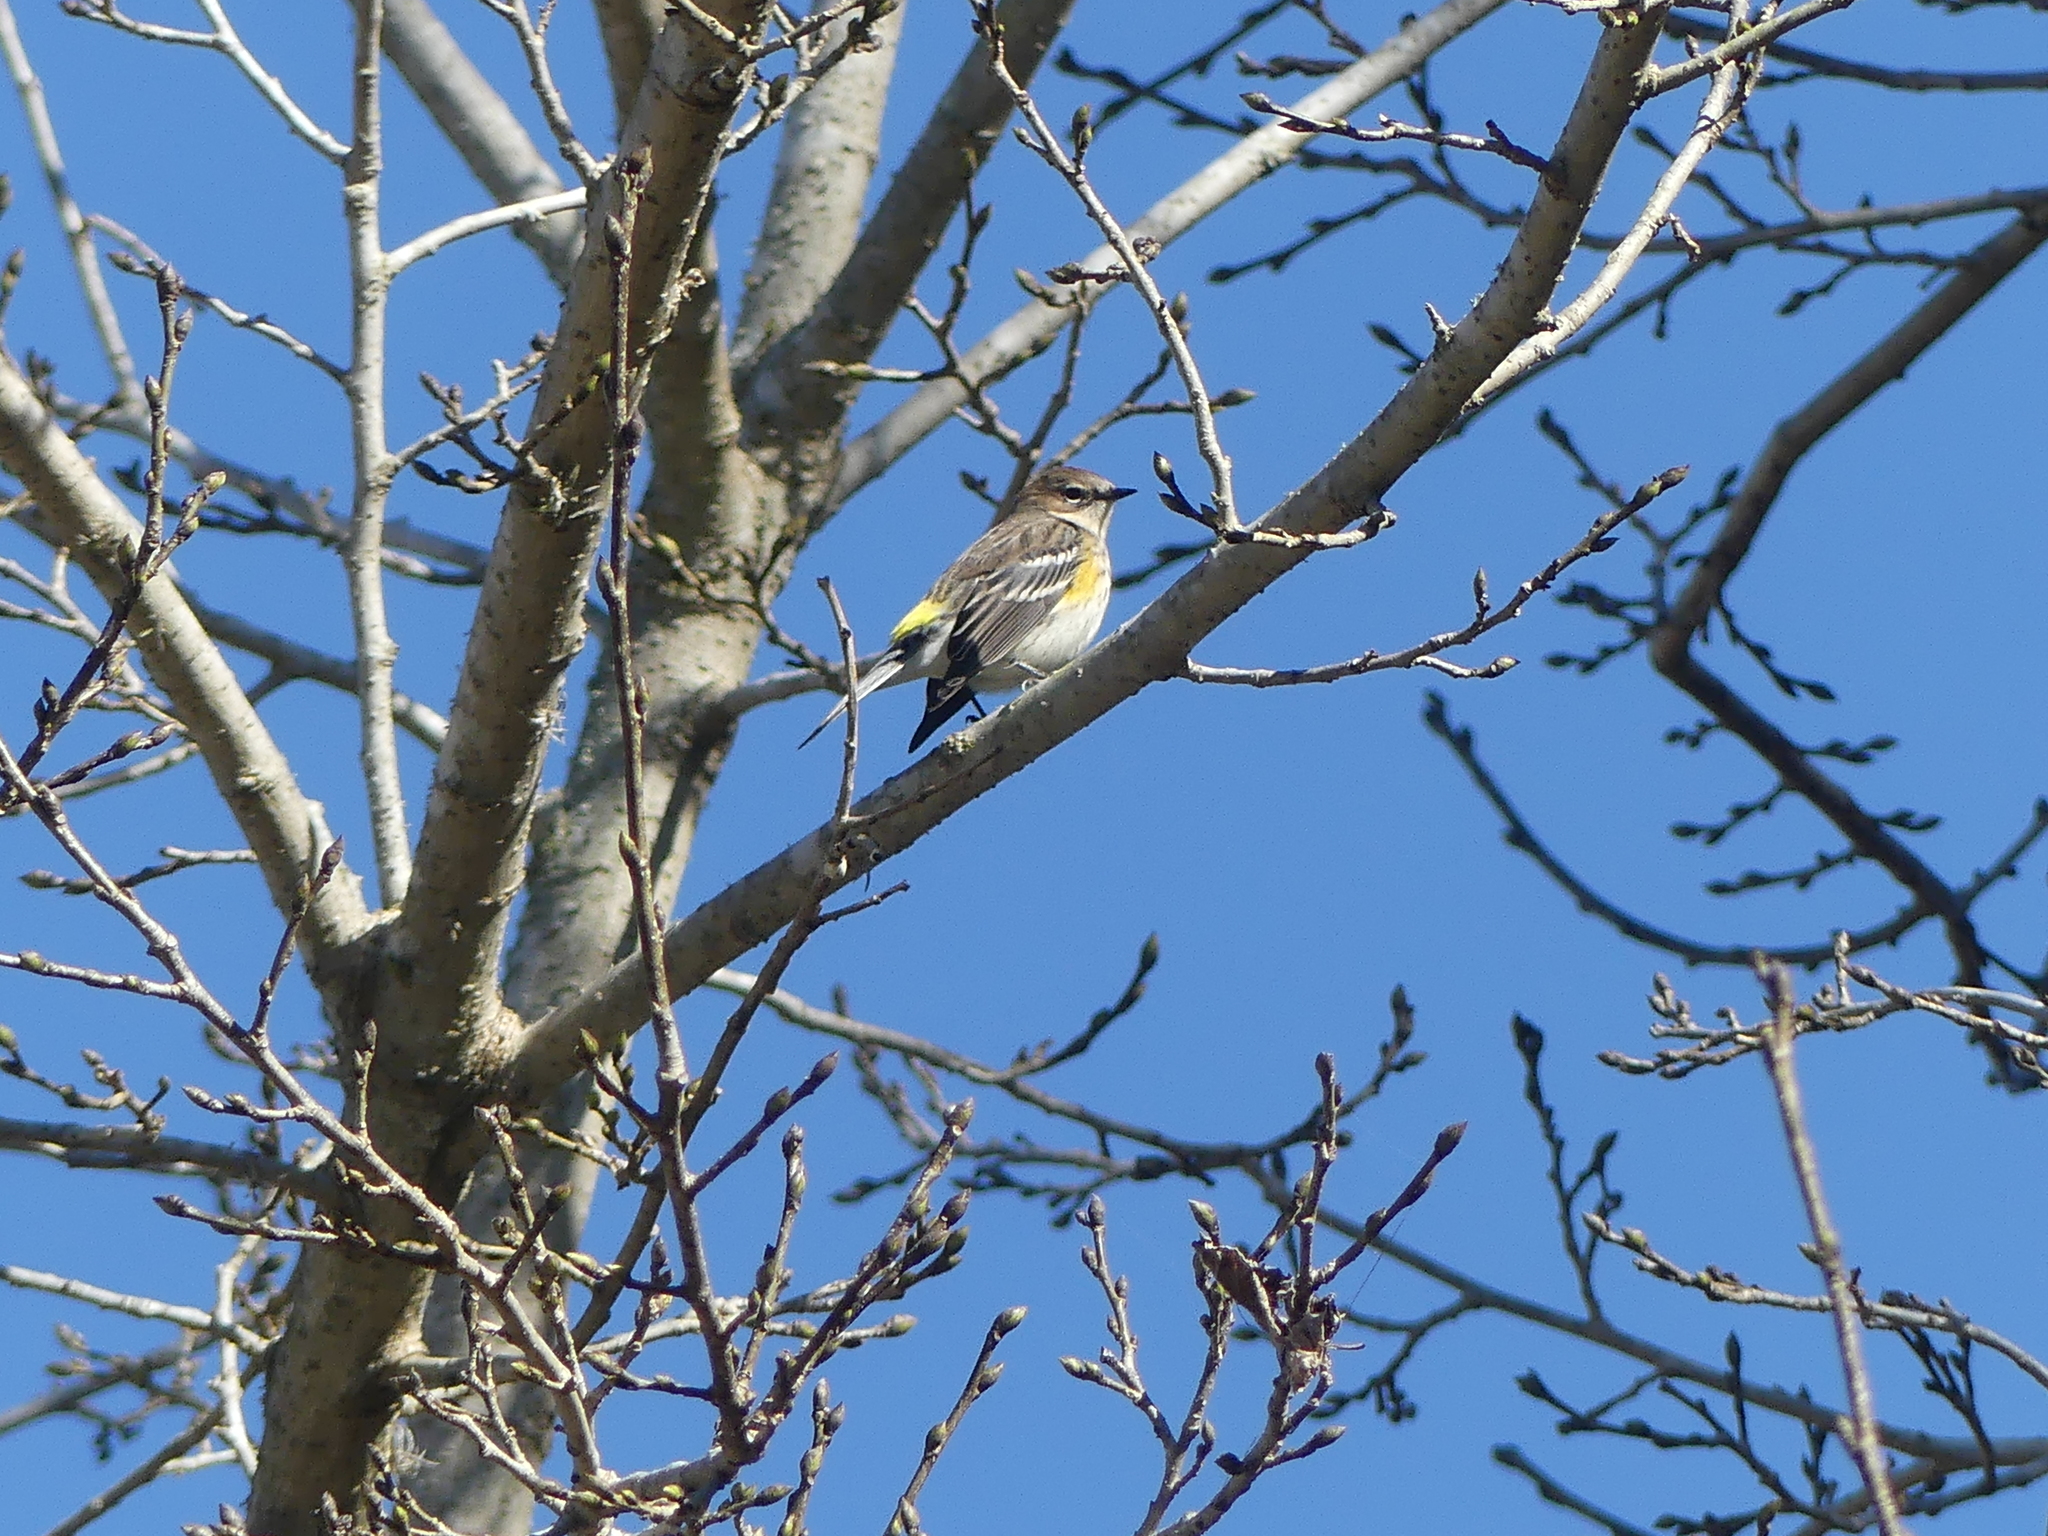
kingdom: Animalia
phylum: Chordata
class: Aves
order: Passeriformes
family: Parulidae
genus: Setophaga
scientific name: Setophaga coronata
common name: Myrtle warbler
